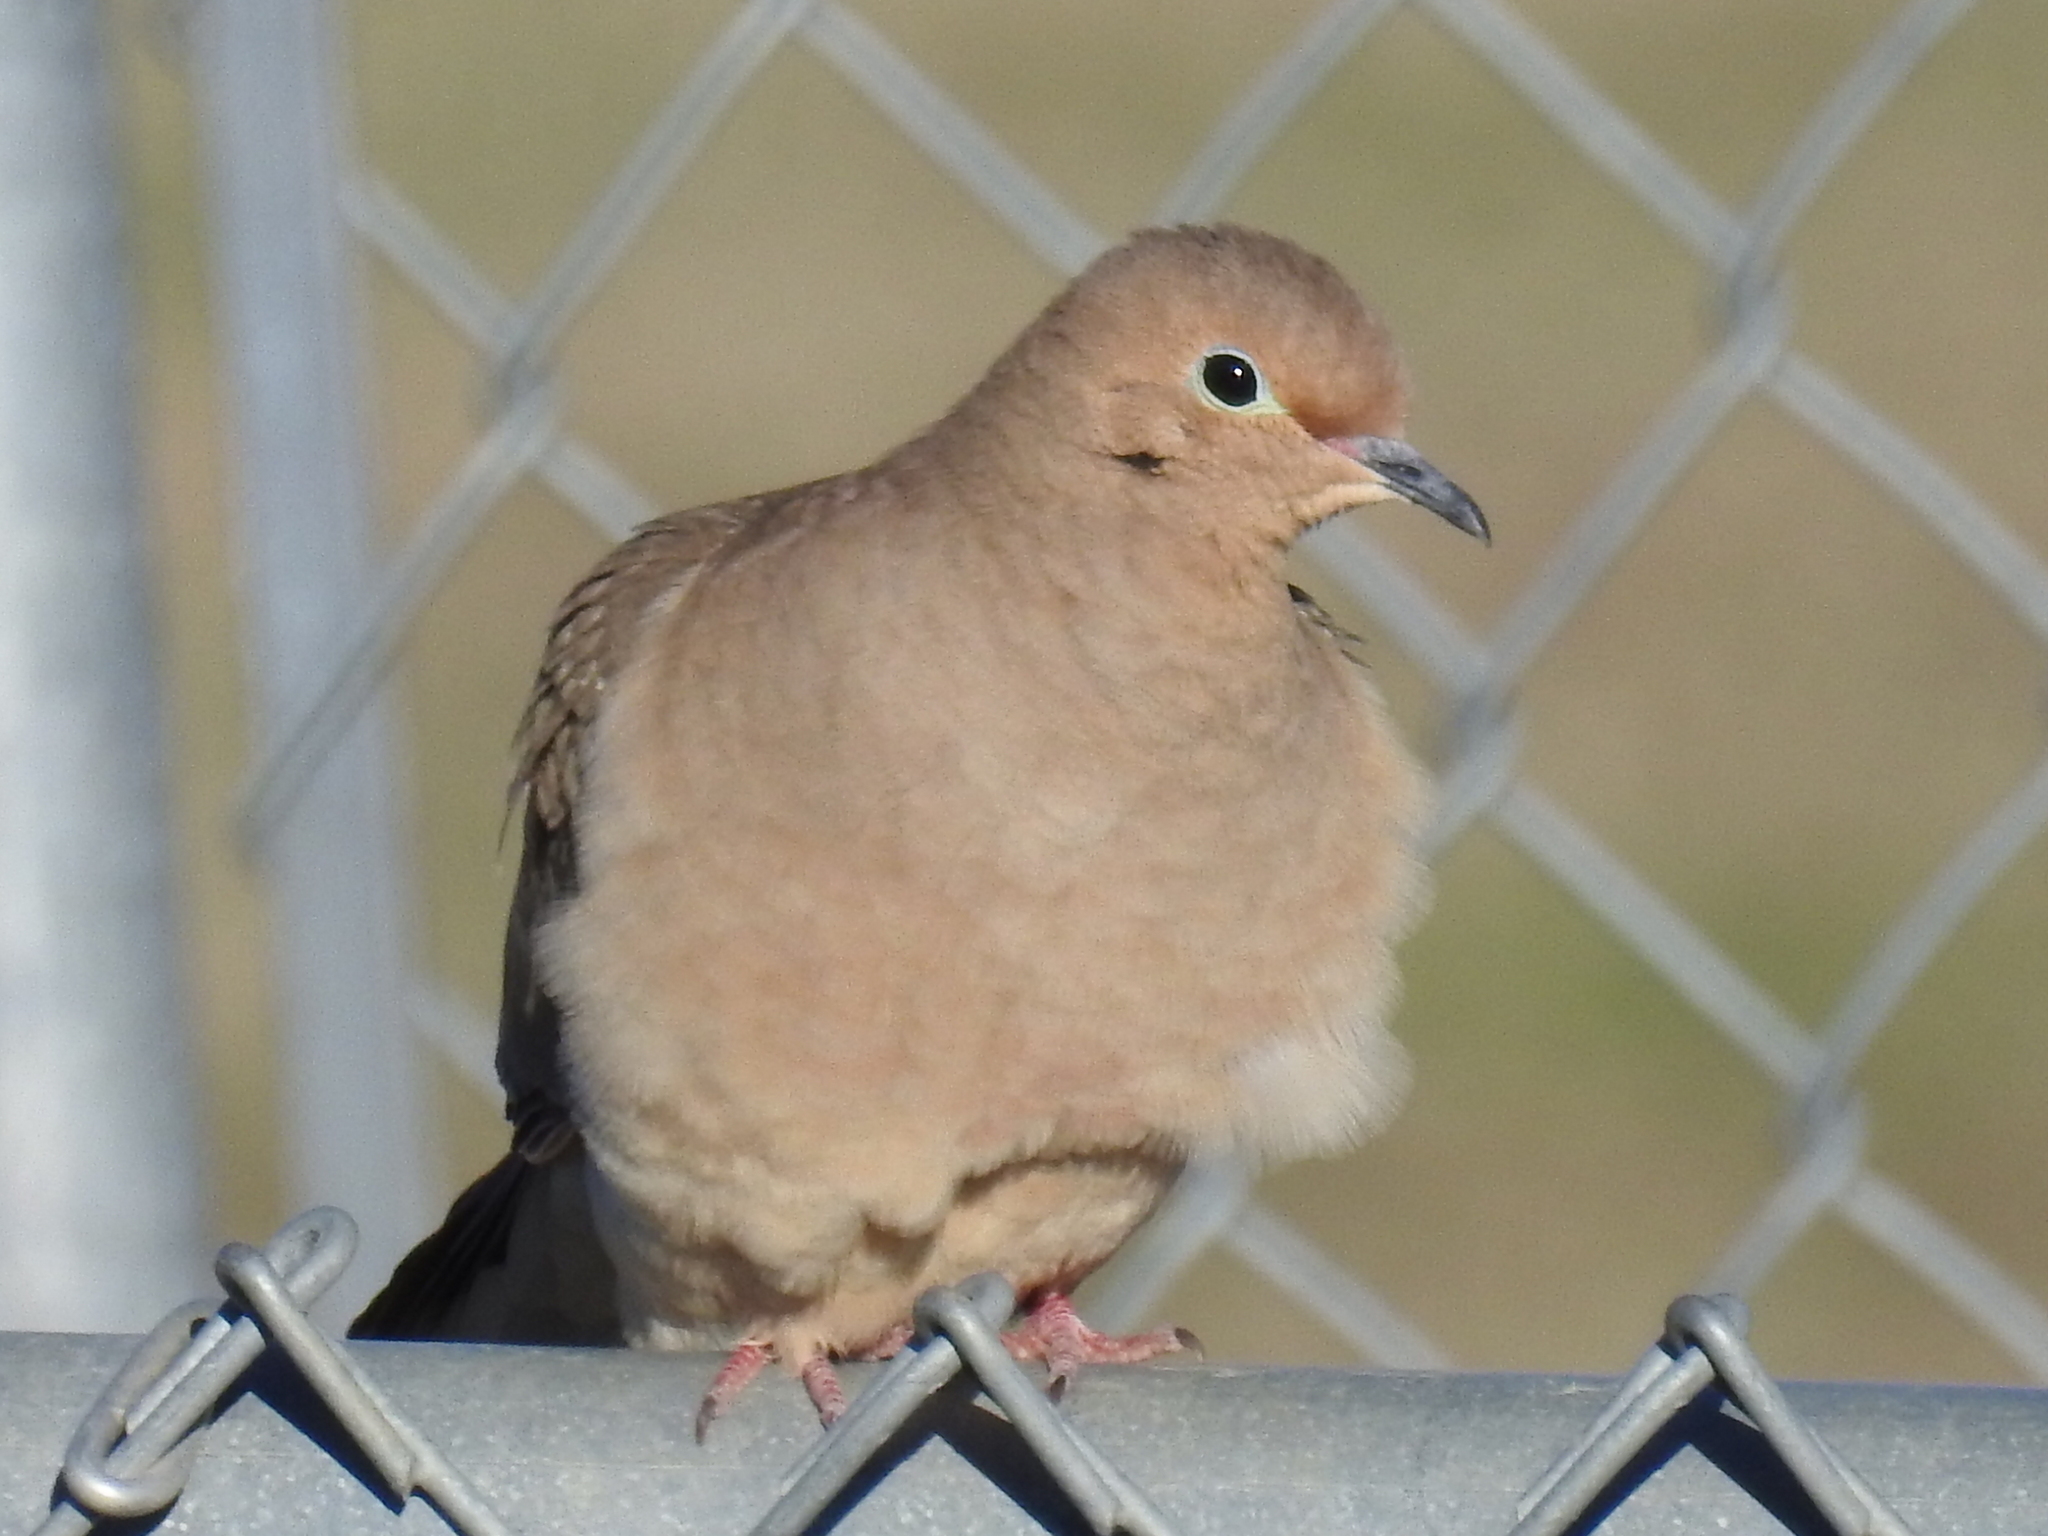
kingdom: Animalia
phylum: Chordata
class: Aves
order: Columbiformes
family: Columbidae
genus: Zenaida
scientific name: Zenaida macroura
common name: Mourning dove
